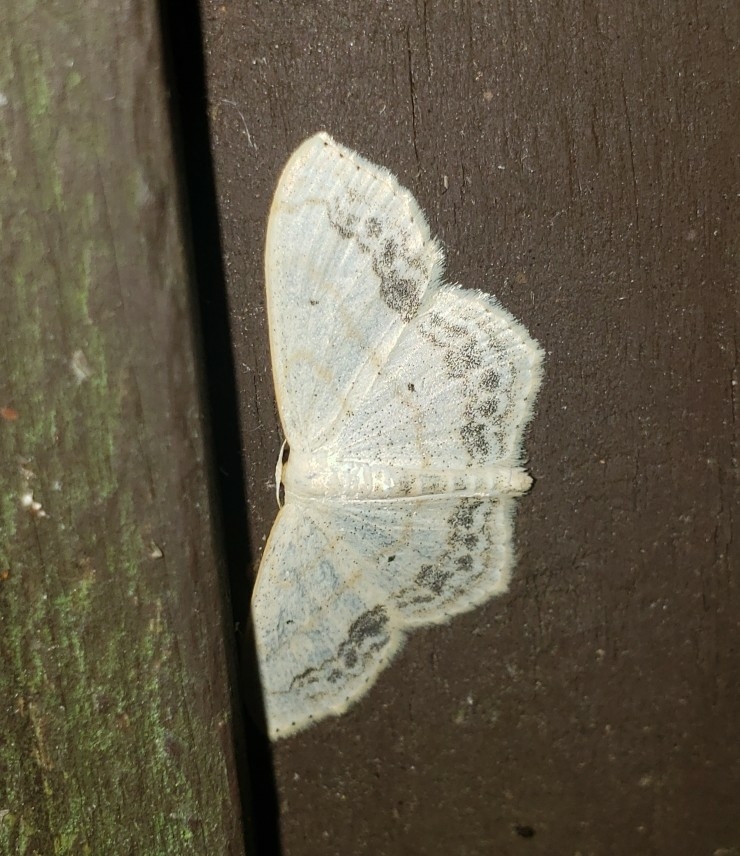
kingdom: Animalia
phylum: Arthropoda
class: Insecta
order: Lepidoptera
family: Geometridae
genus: Scopula
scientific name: Scopula limboundata
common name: Large lace border
